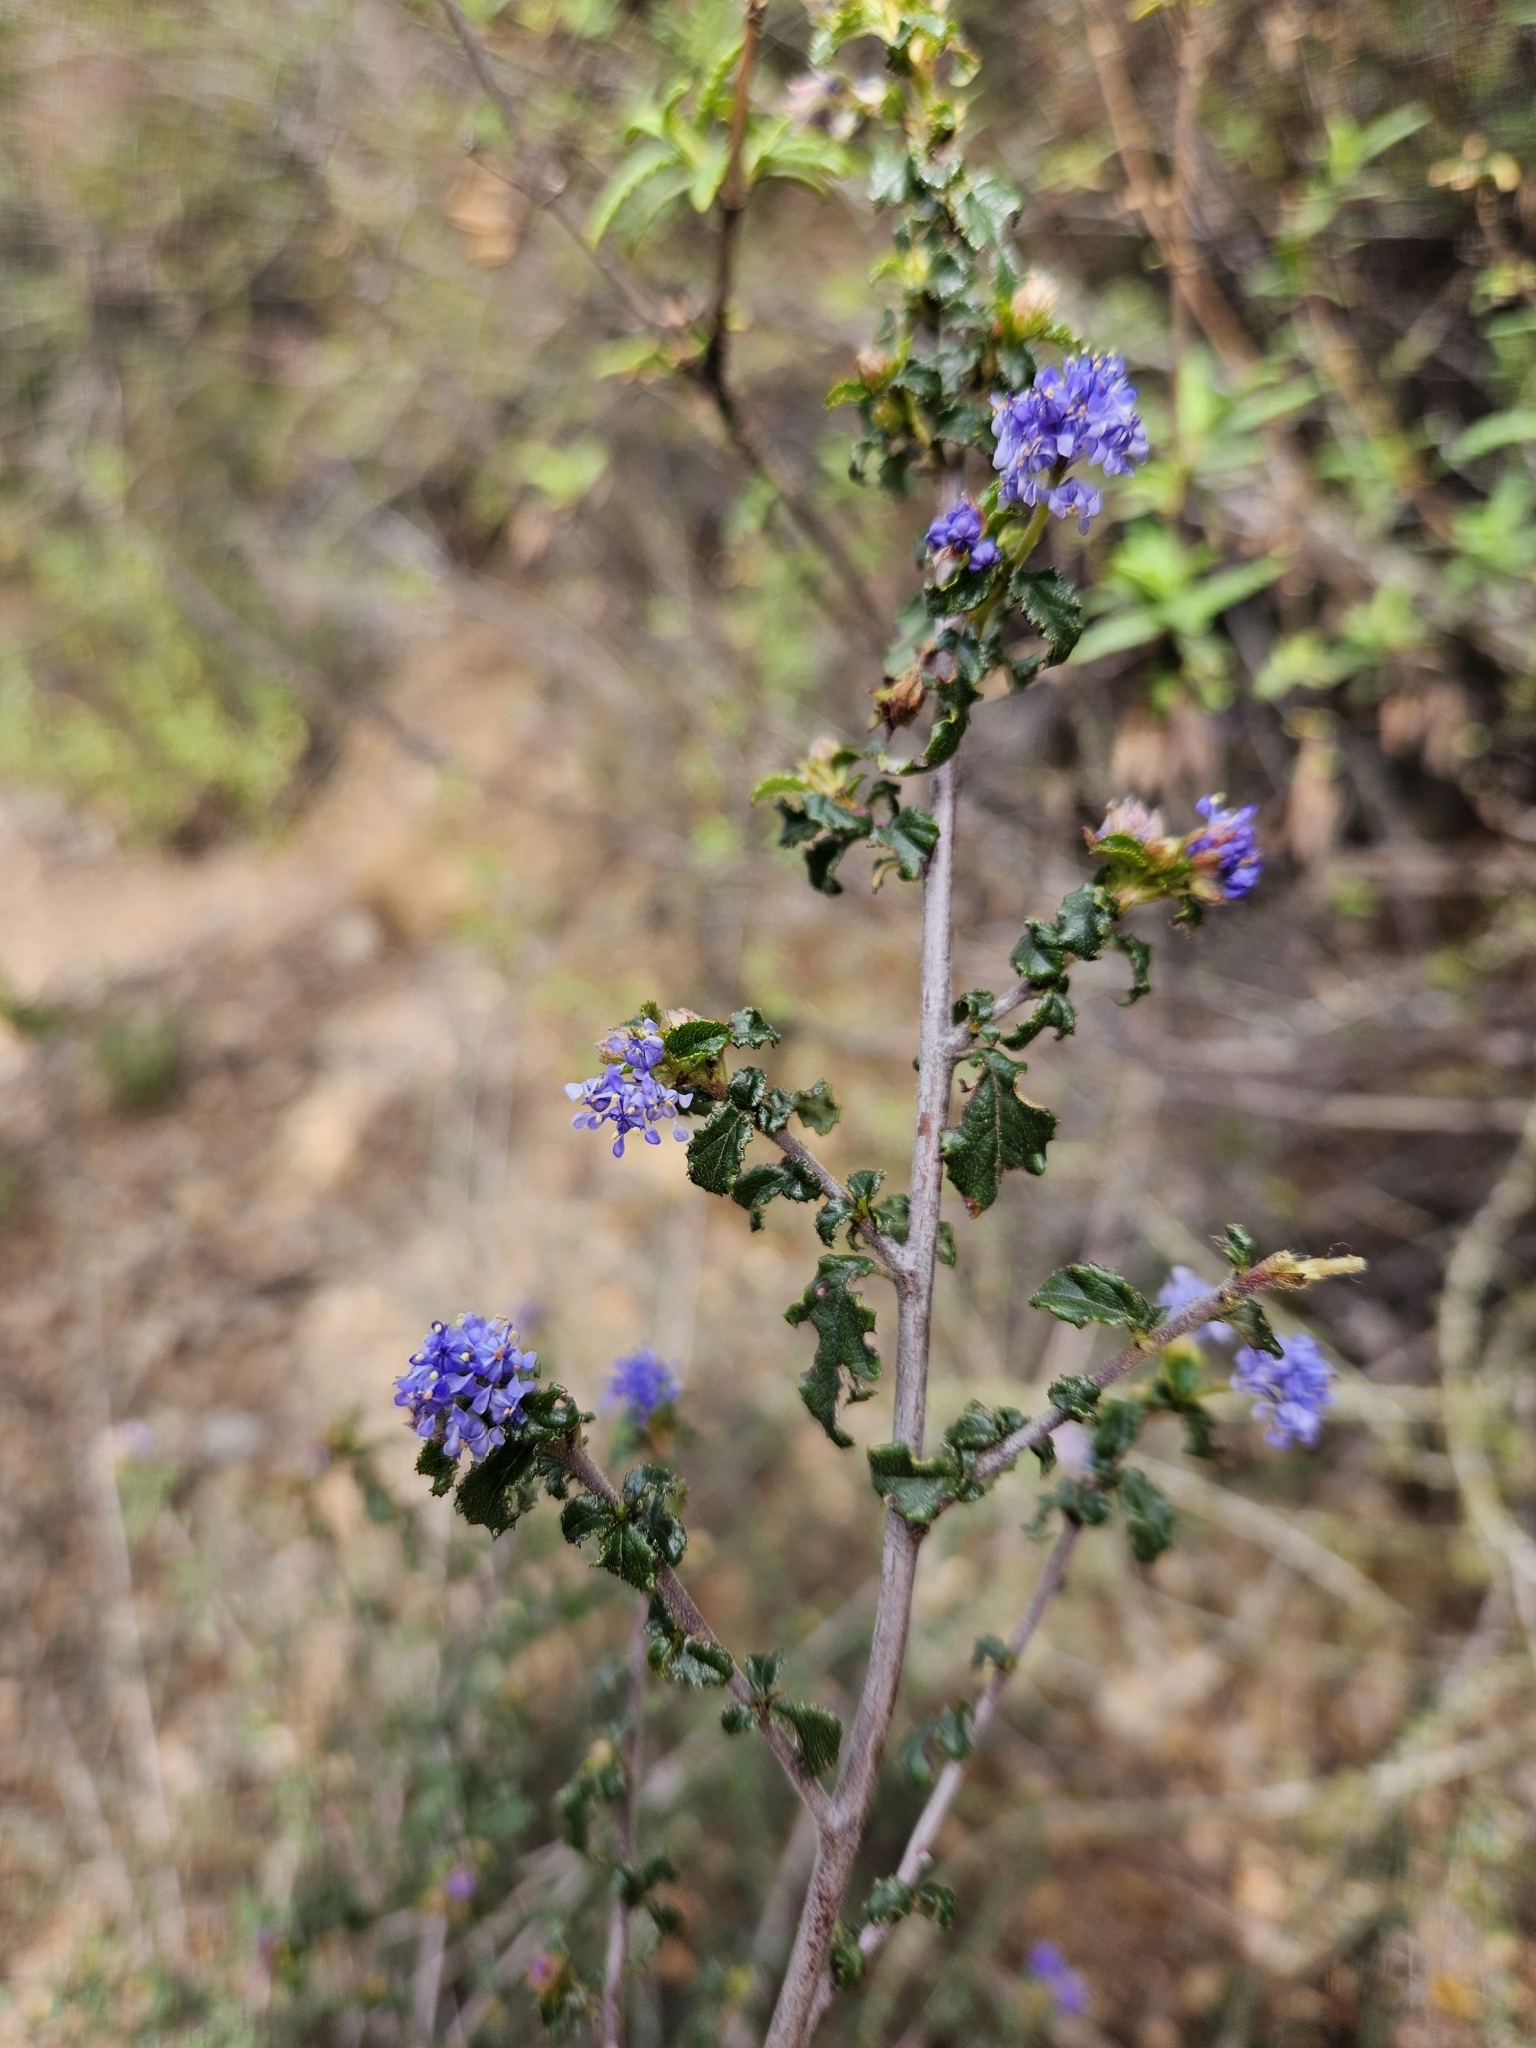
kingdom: Plantae
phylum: Tracheophyta
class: Magnoliopsida
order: Rosales
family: Rhamnaceae
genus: Ceanothus
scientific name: Ceanothus foliosus
